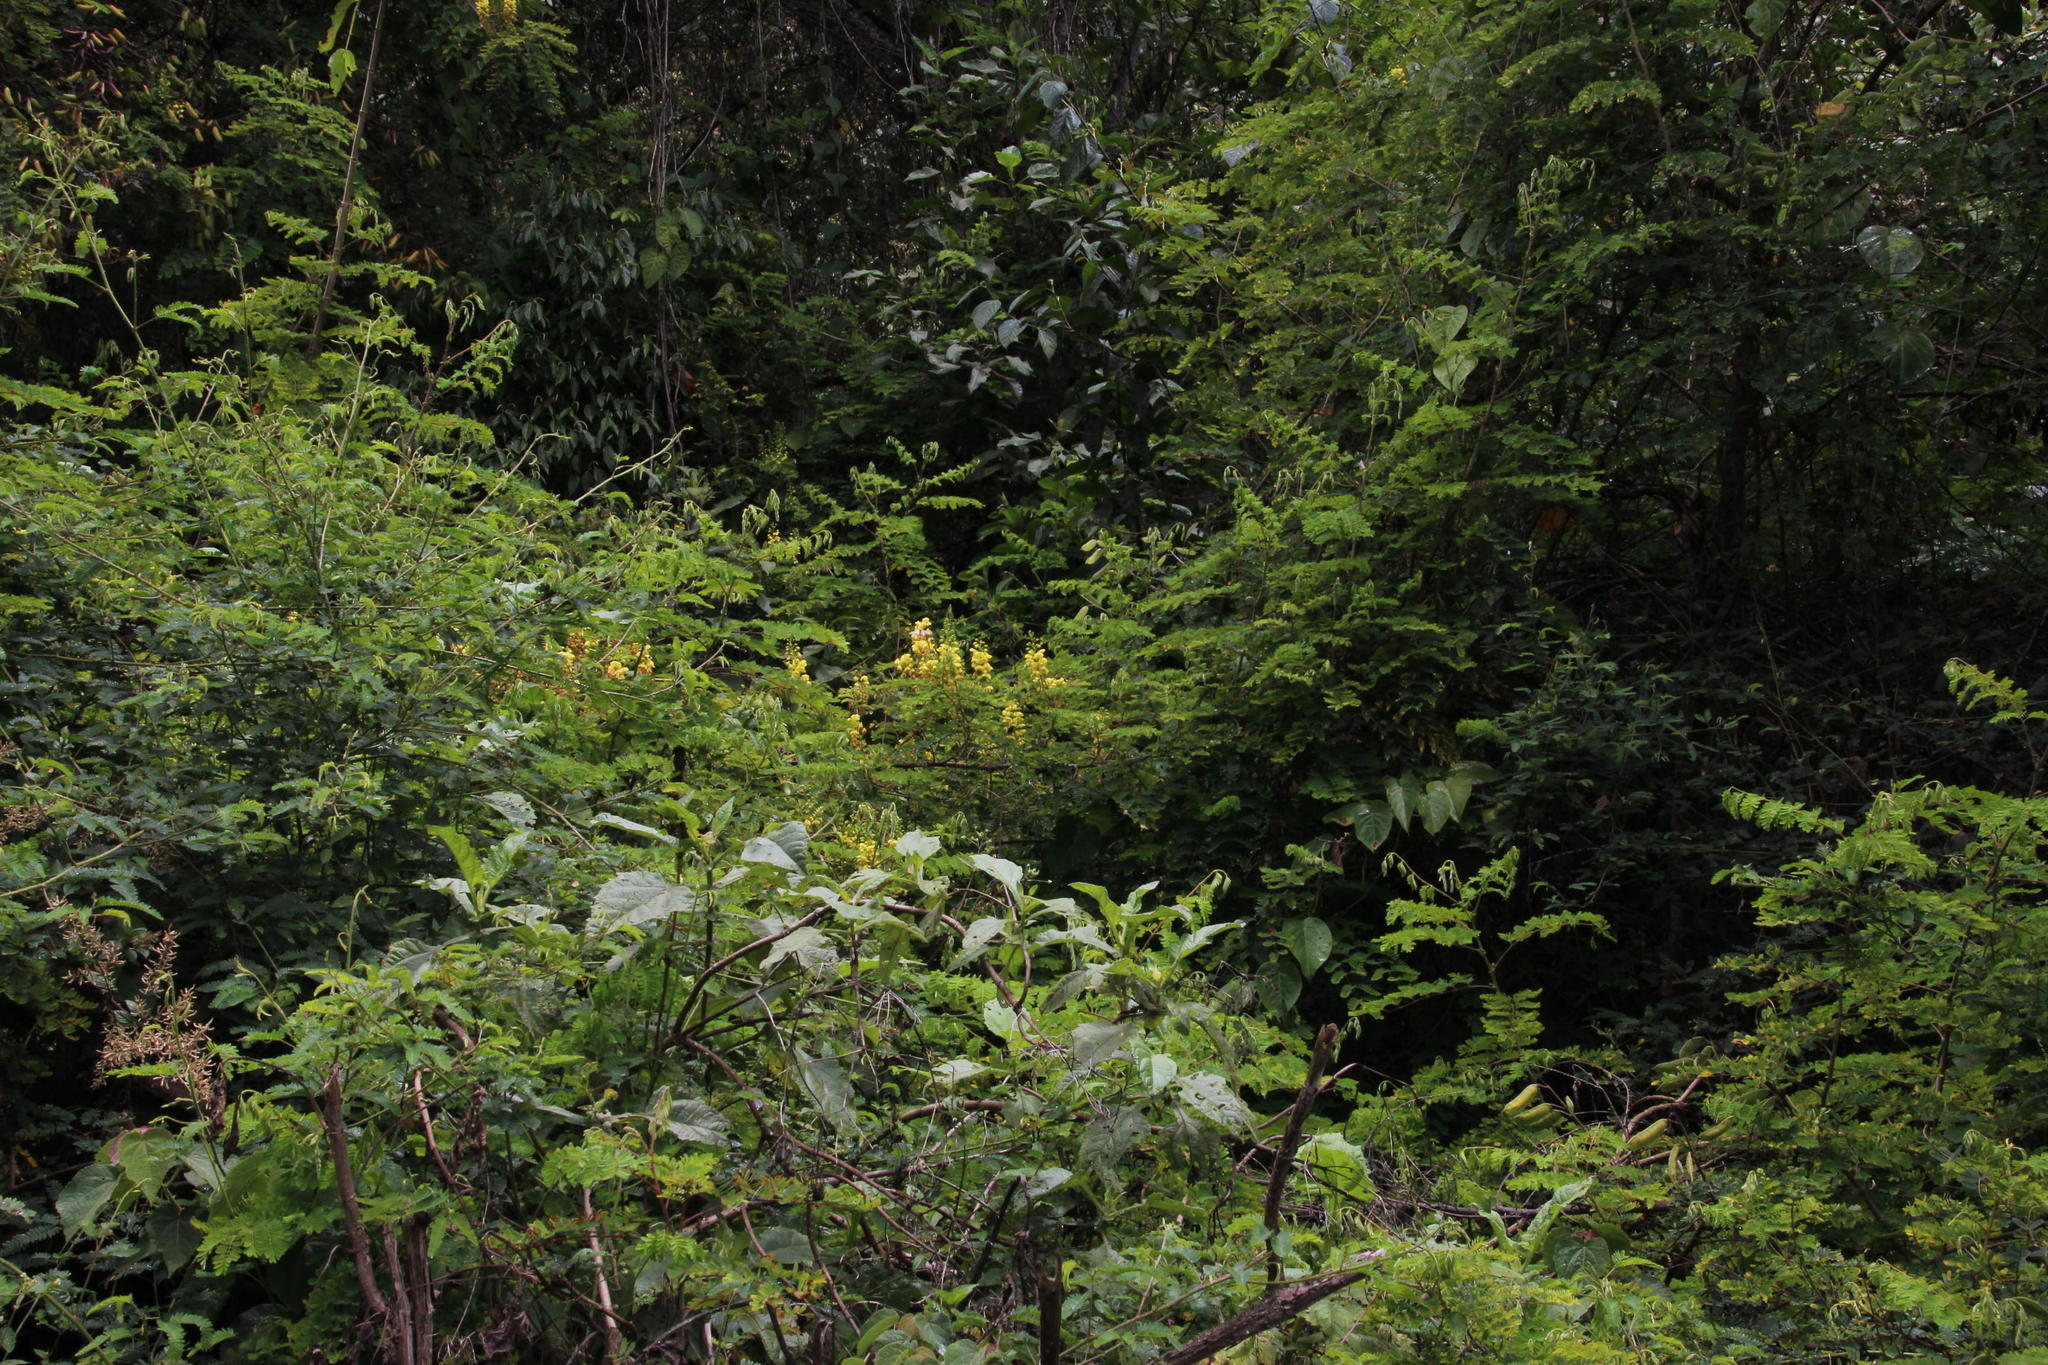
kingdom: Plantae
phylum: Tracheophyta
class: Magnoliopsida
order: Fabales
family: Fabaceae
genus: Biancaea
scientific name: Biancaea decapetala
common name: Cat's claw
